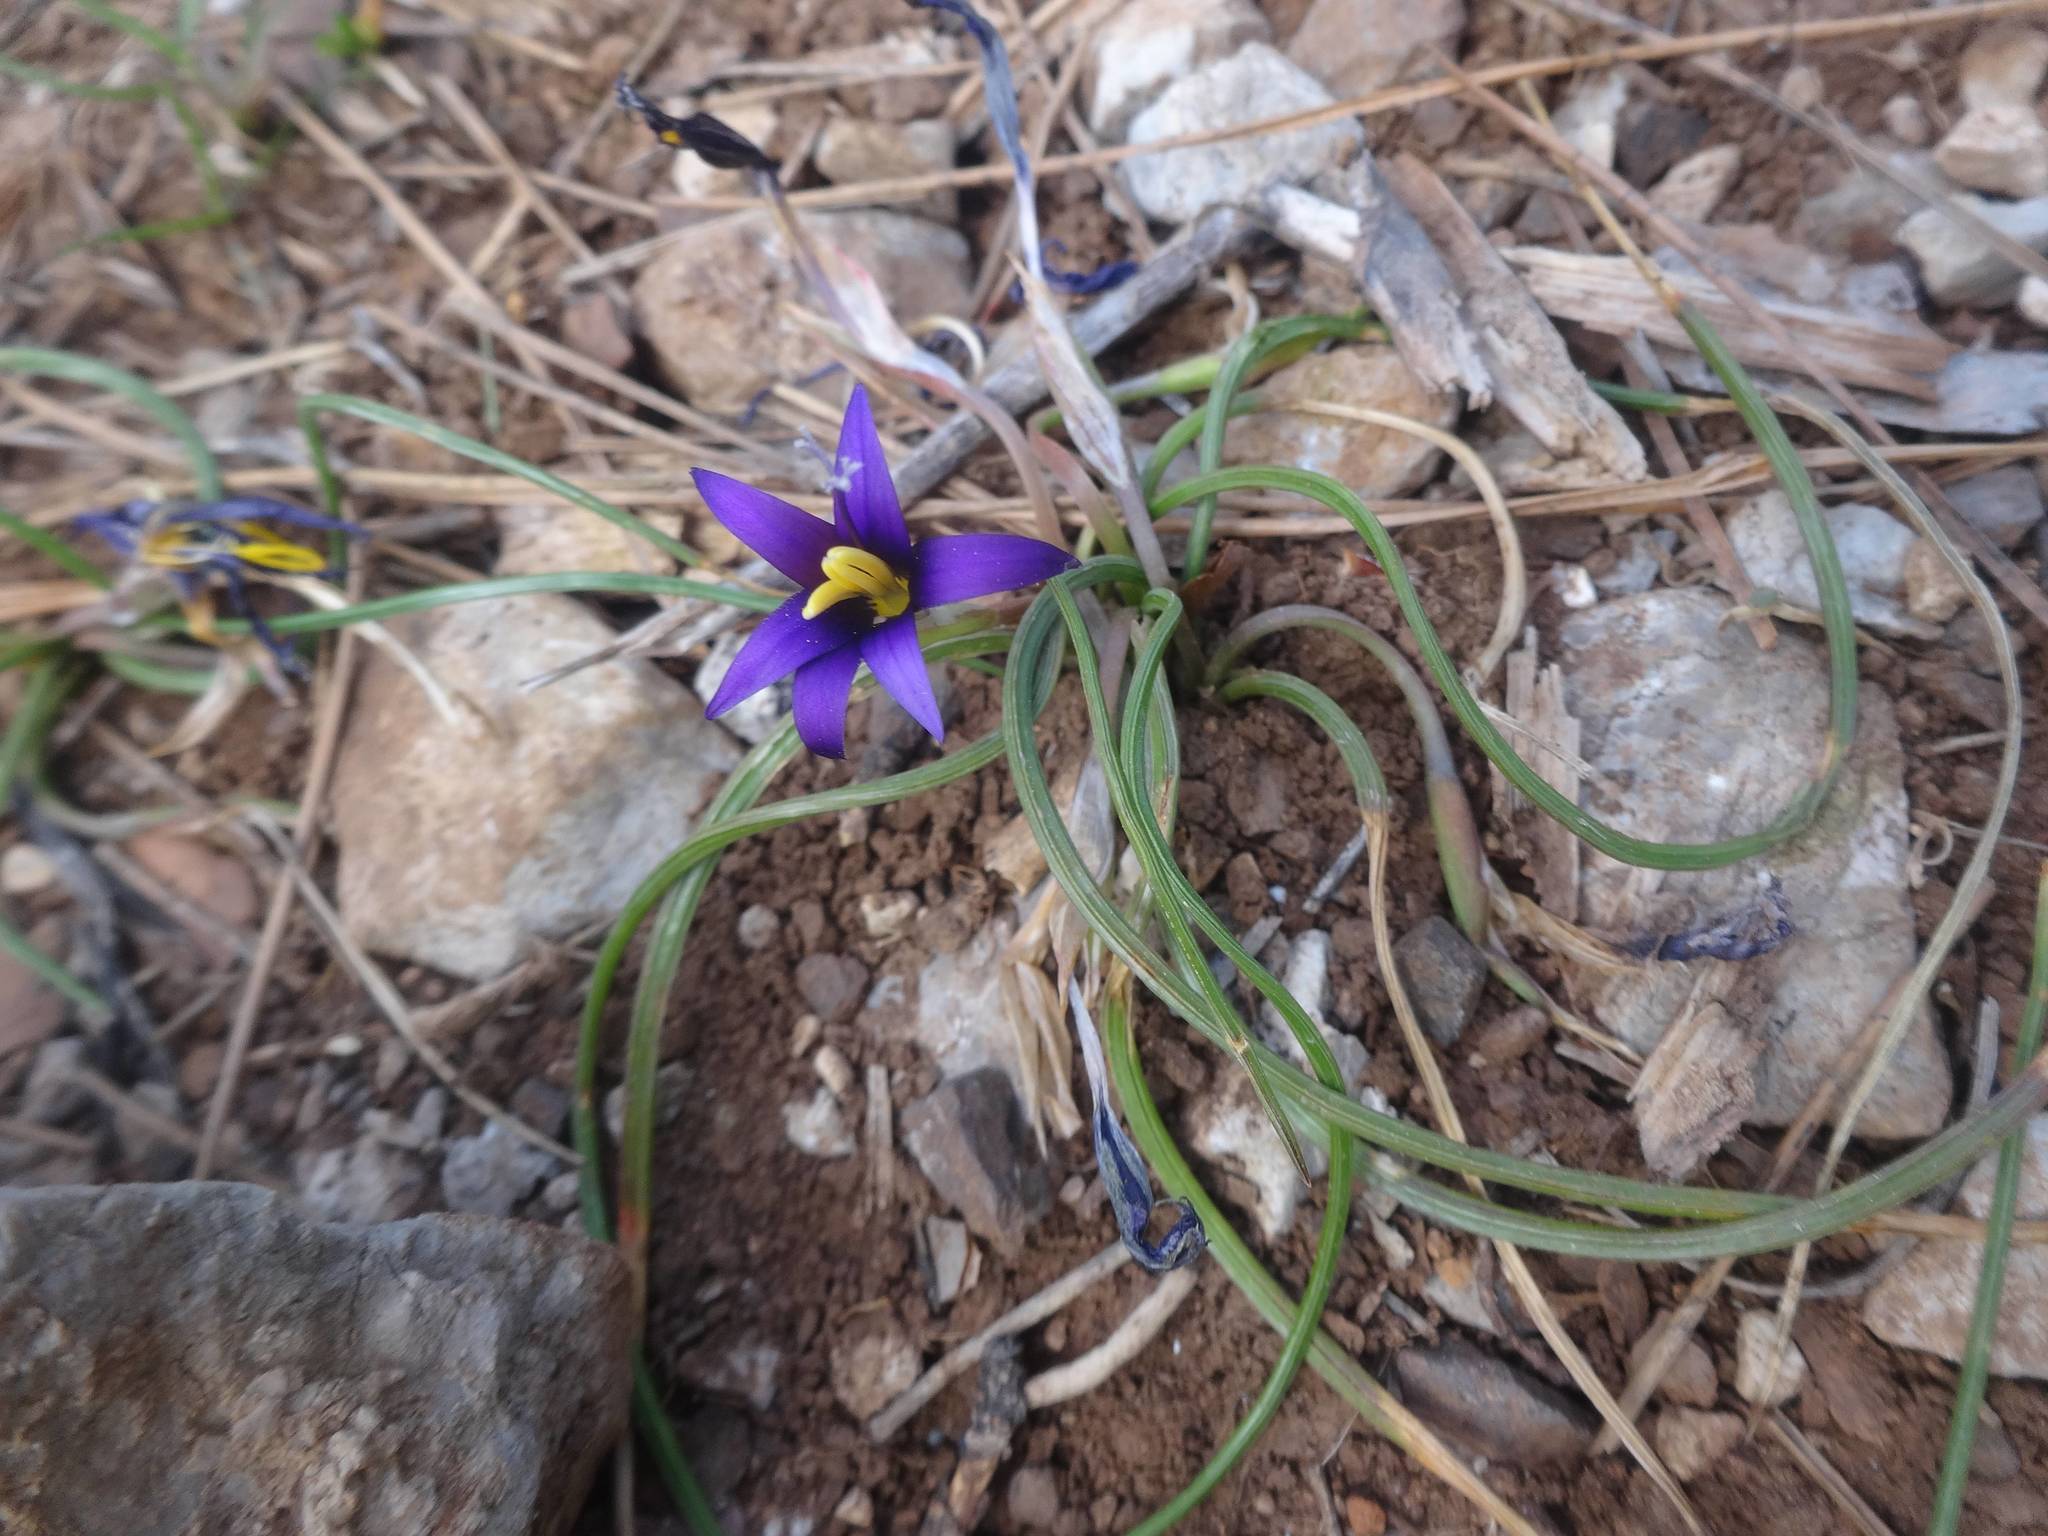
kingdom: Plantae
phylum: Tracheophyta
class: Liliopsida
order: Asparagales
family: Iridaceae
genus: Romulea
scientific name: Romulea tempskyana
